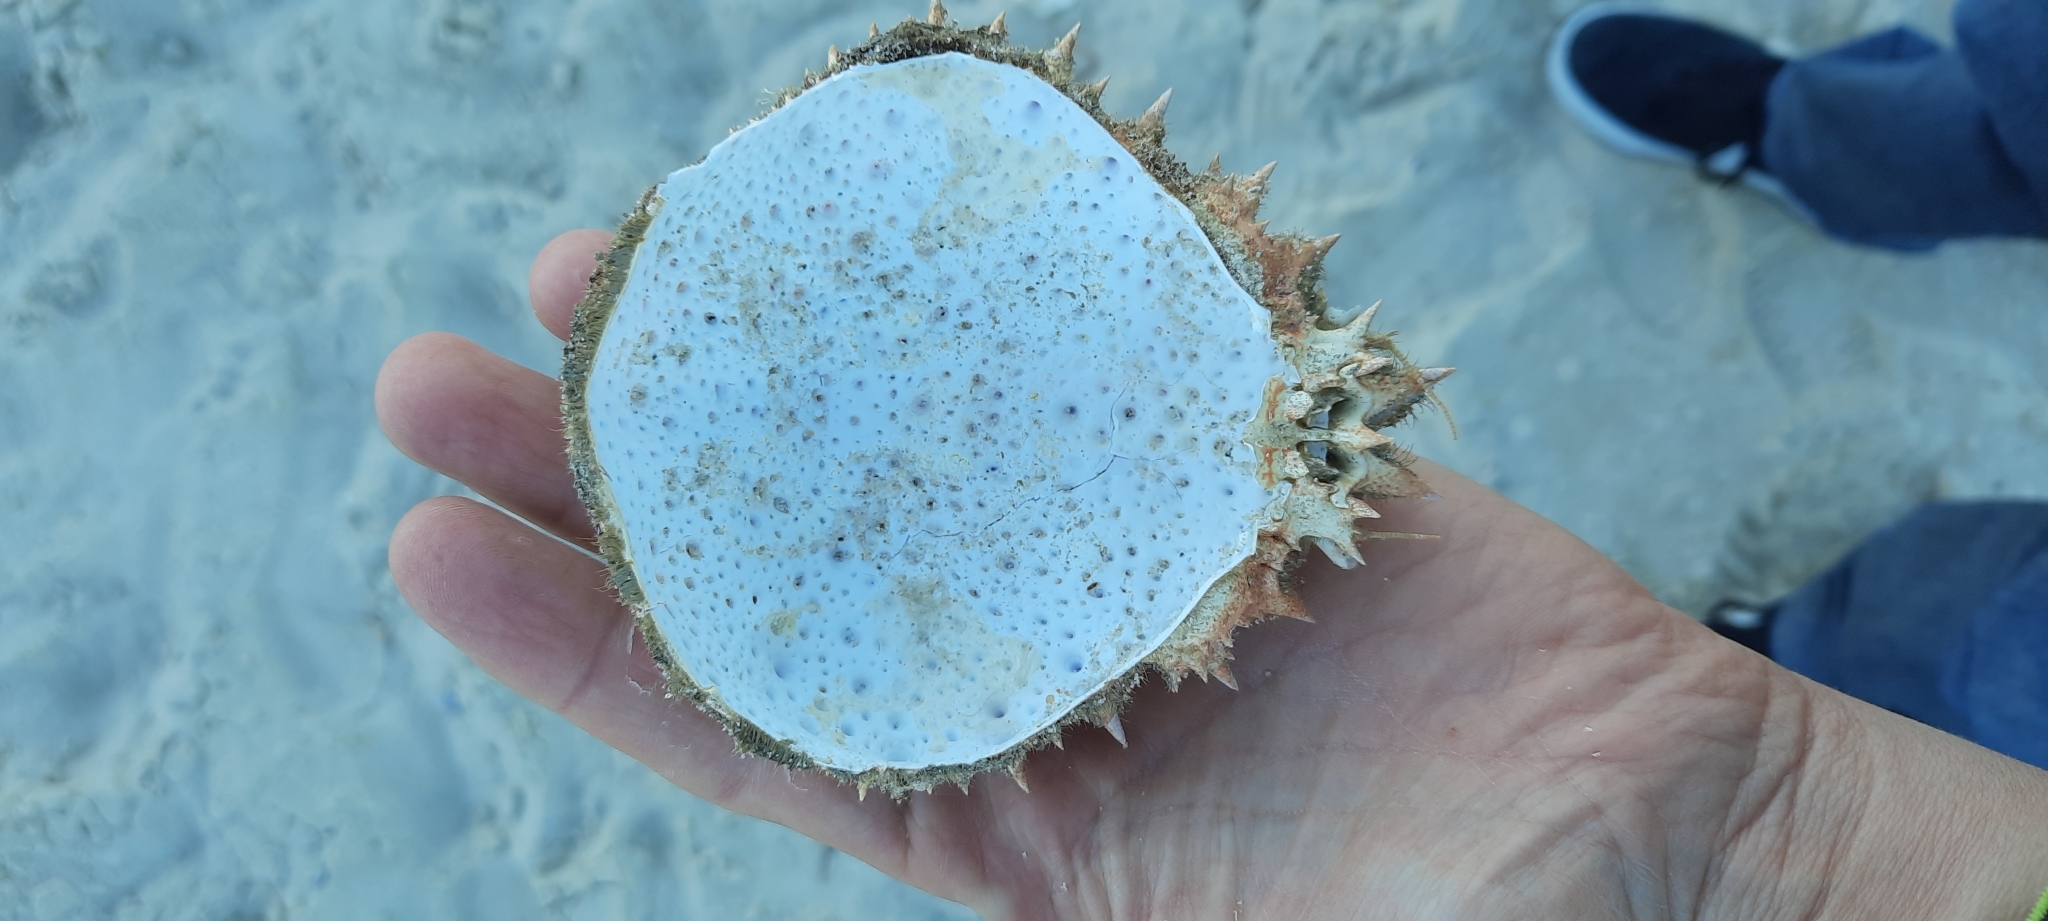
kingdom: Animalia
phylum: Arthropoda
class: Malacostraca
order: Decapoda
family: Majidae
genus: Maja
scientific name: Maja brachydactyla
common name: Common spider crab
